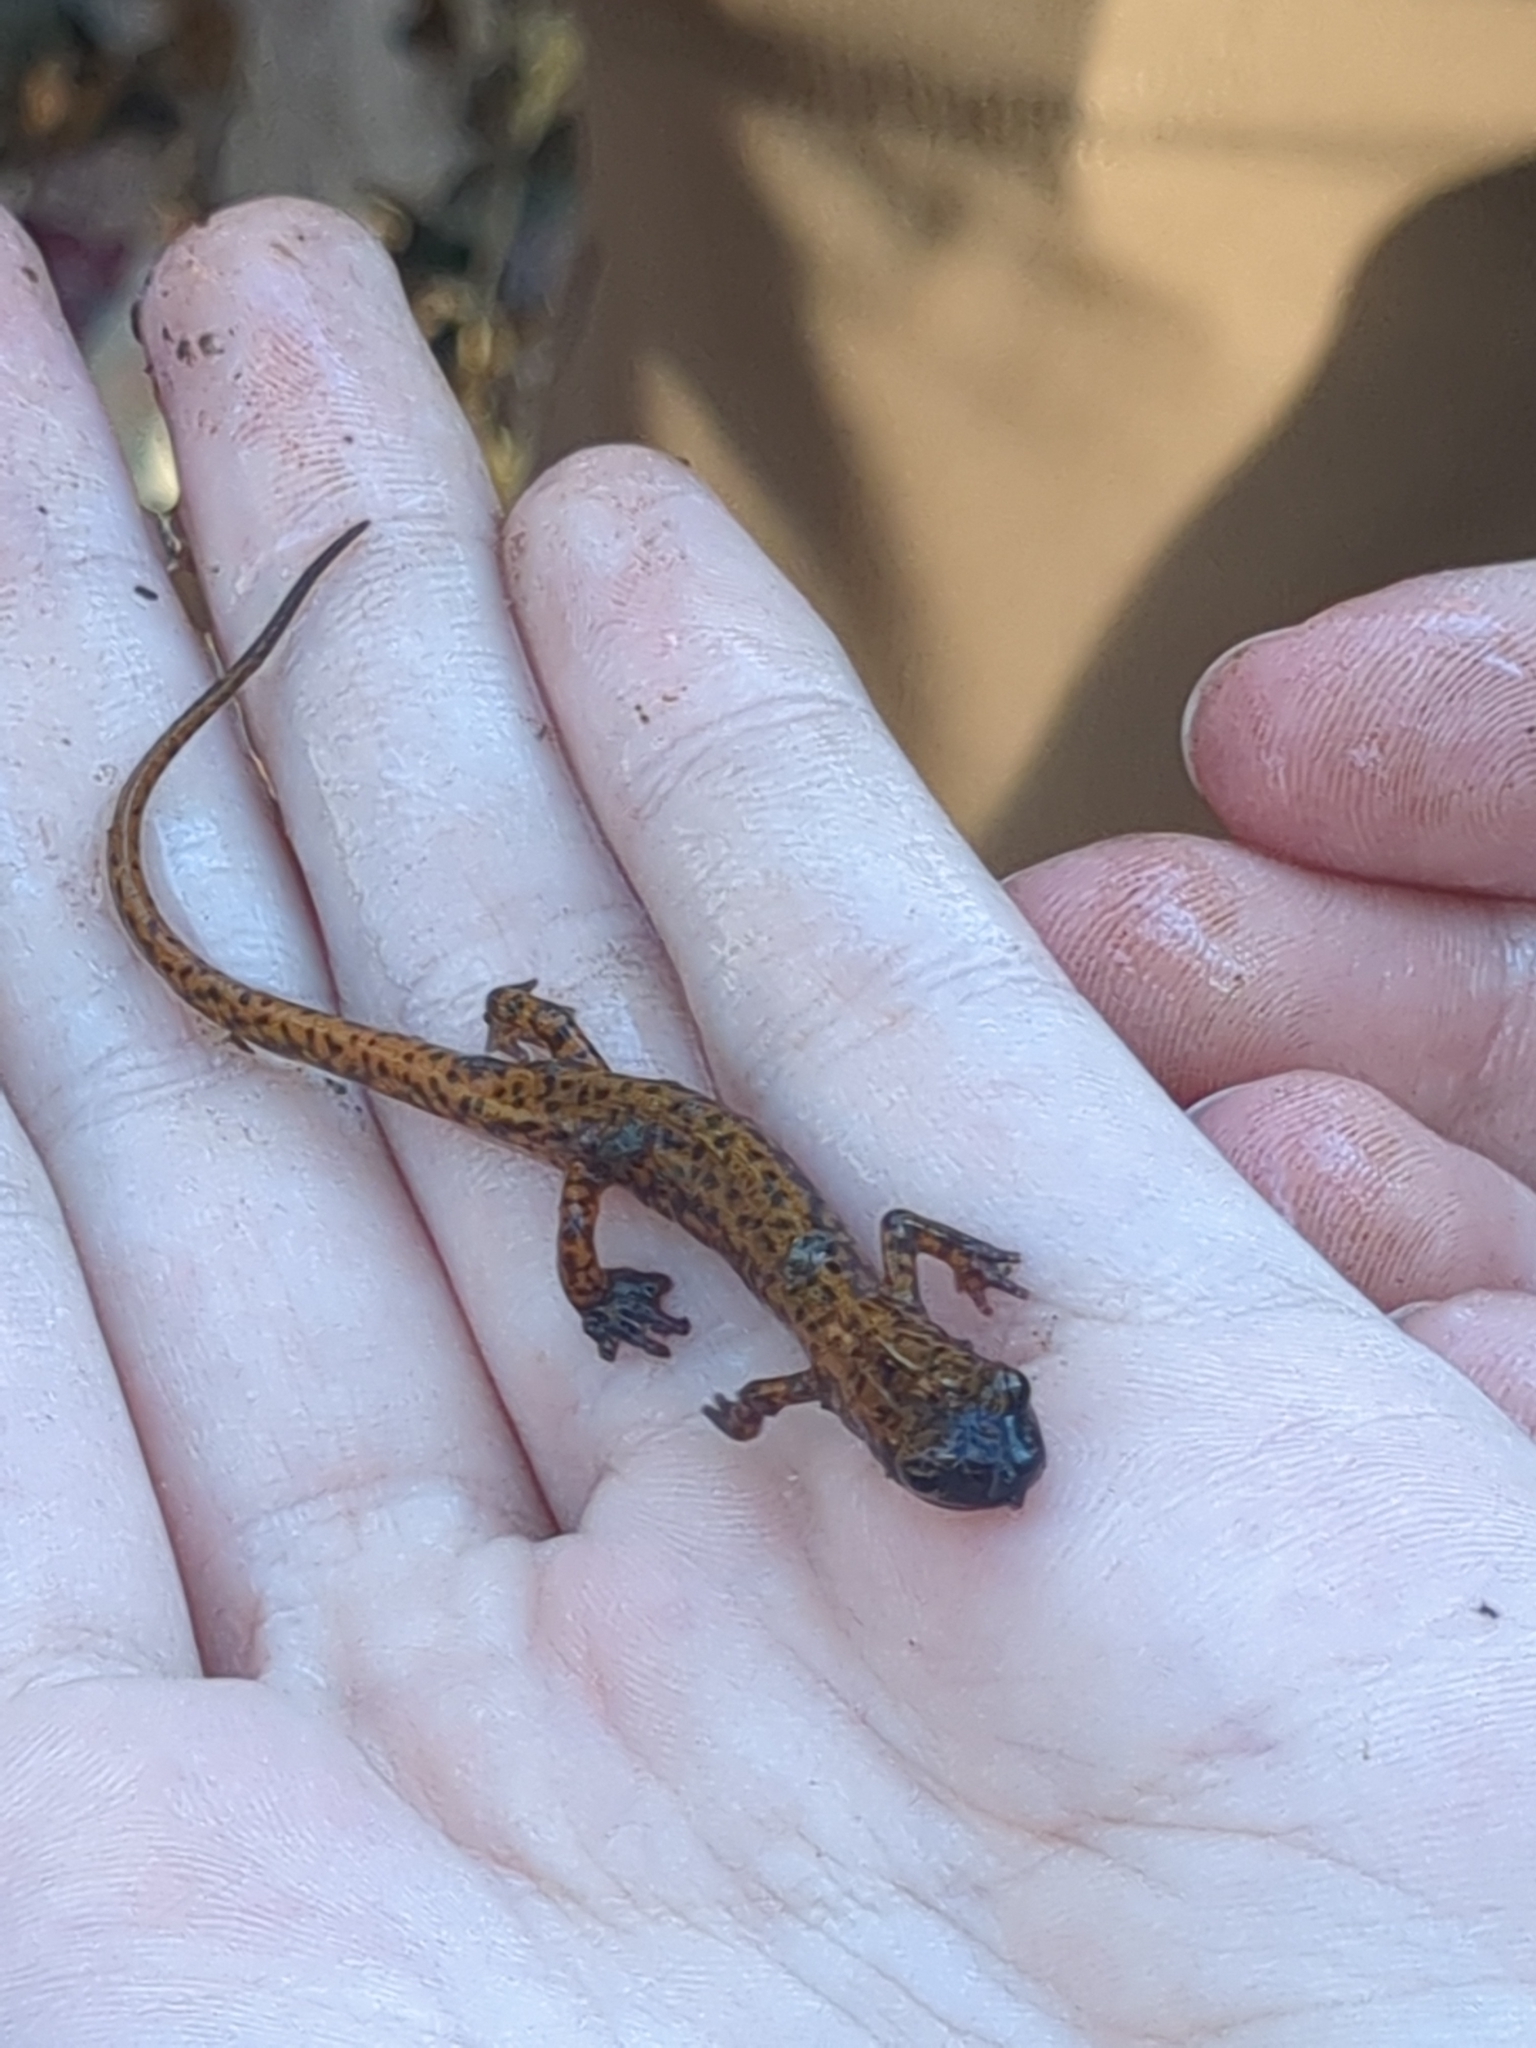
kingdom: Animalia
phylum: Chordata
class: Amphibia
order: Caudata
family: Plethodontidae
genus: Eurycea
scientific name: Eurycea lucifuga
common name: Cave salamander
